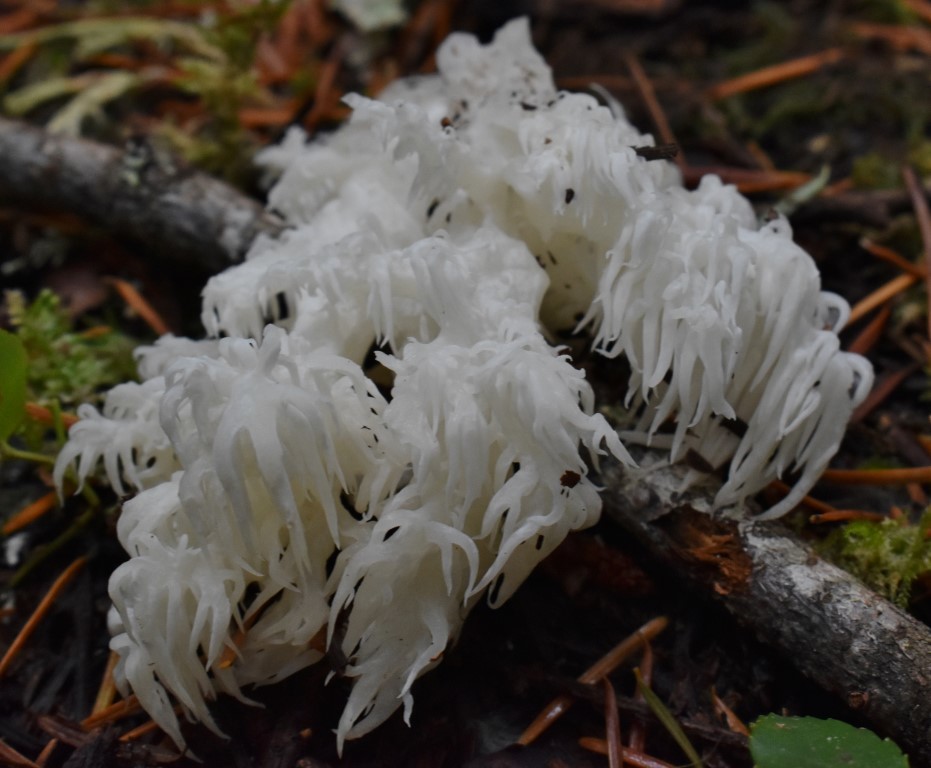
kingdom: Fungi
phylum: Basidiomycota
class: Agaricomycetes
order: Russulales
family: Hericiaceae
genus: Hericium
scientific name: Hericium abietis
